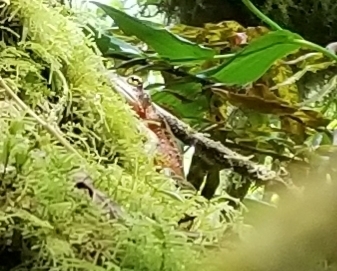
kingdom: Animalia
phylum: Chordata
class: Amphibia
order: Anura
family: Ranidae
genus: Rana
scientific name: Rana aurora
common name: Red-legged frog
